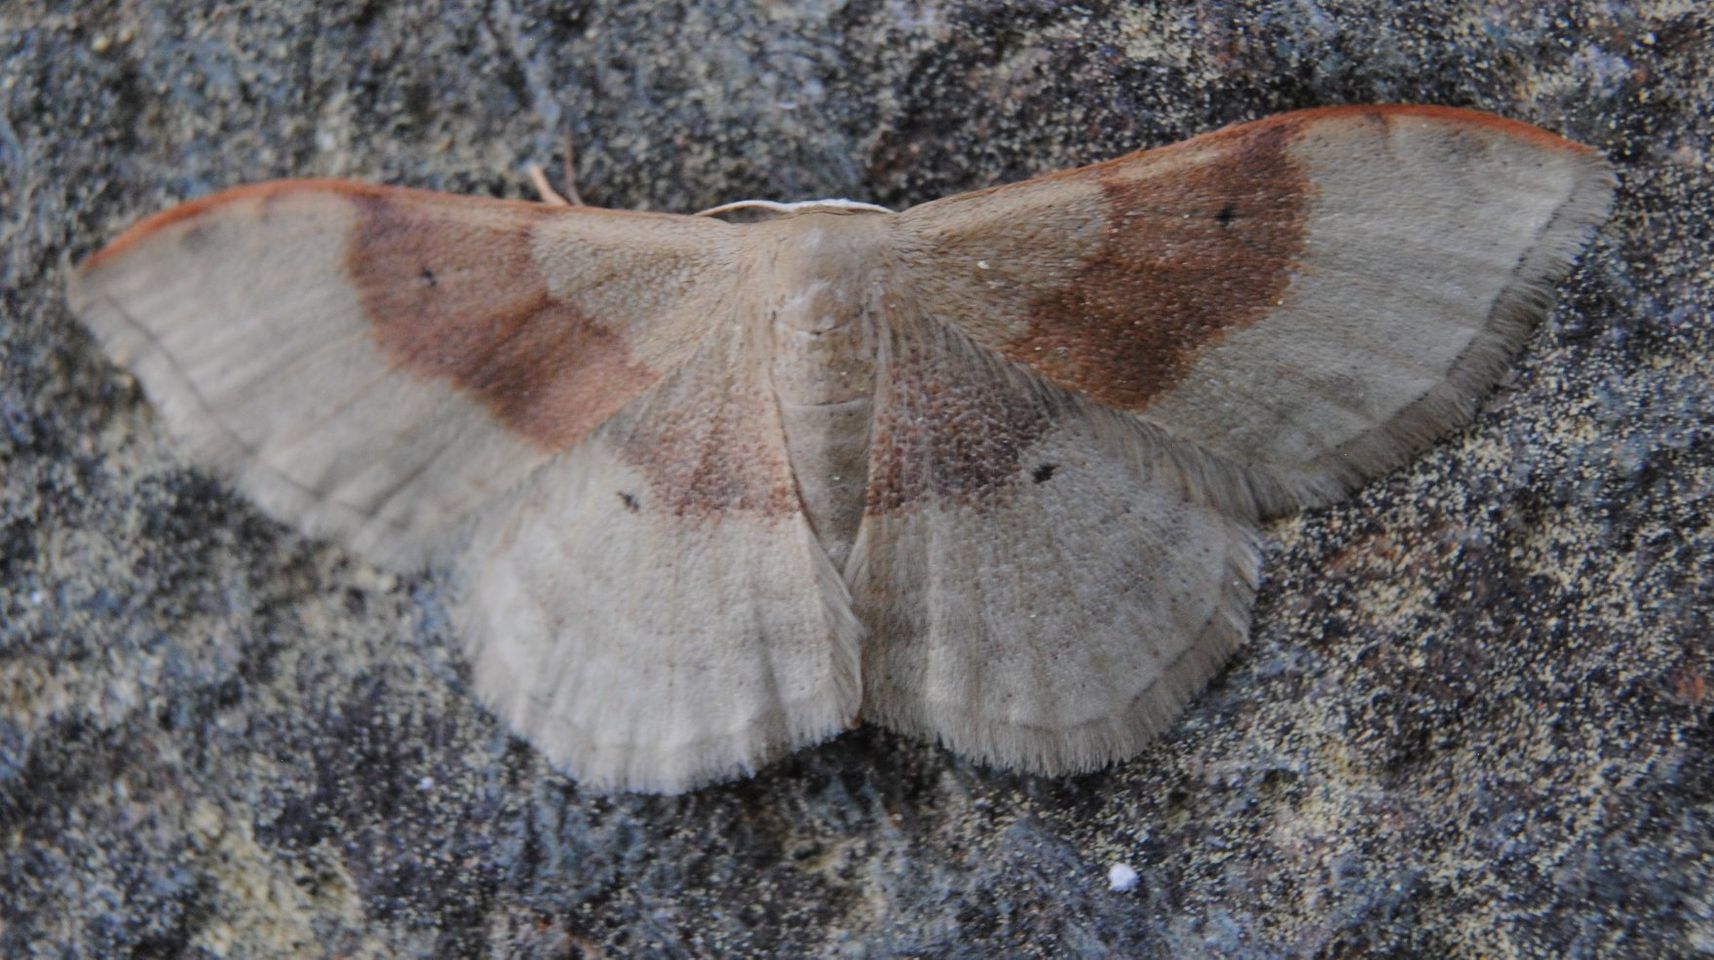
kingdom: Animalia
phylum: Arthropoda
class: Insecta
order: Lepidoptera
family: Geometridae
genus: Idaea
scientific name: Idaea degeneraria
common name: Portland ribbon wave
